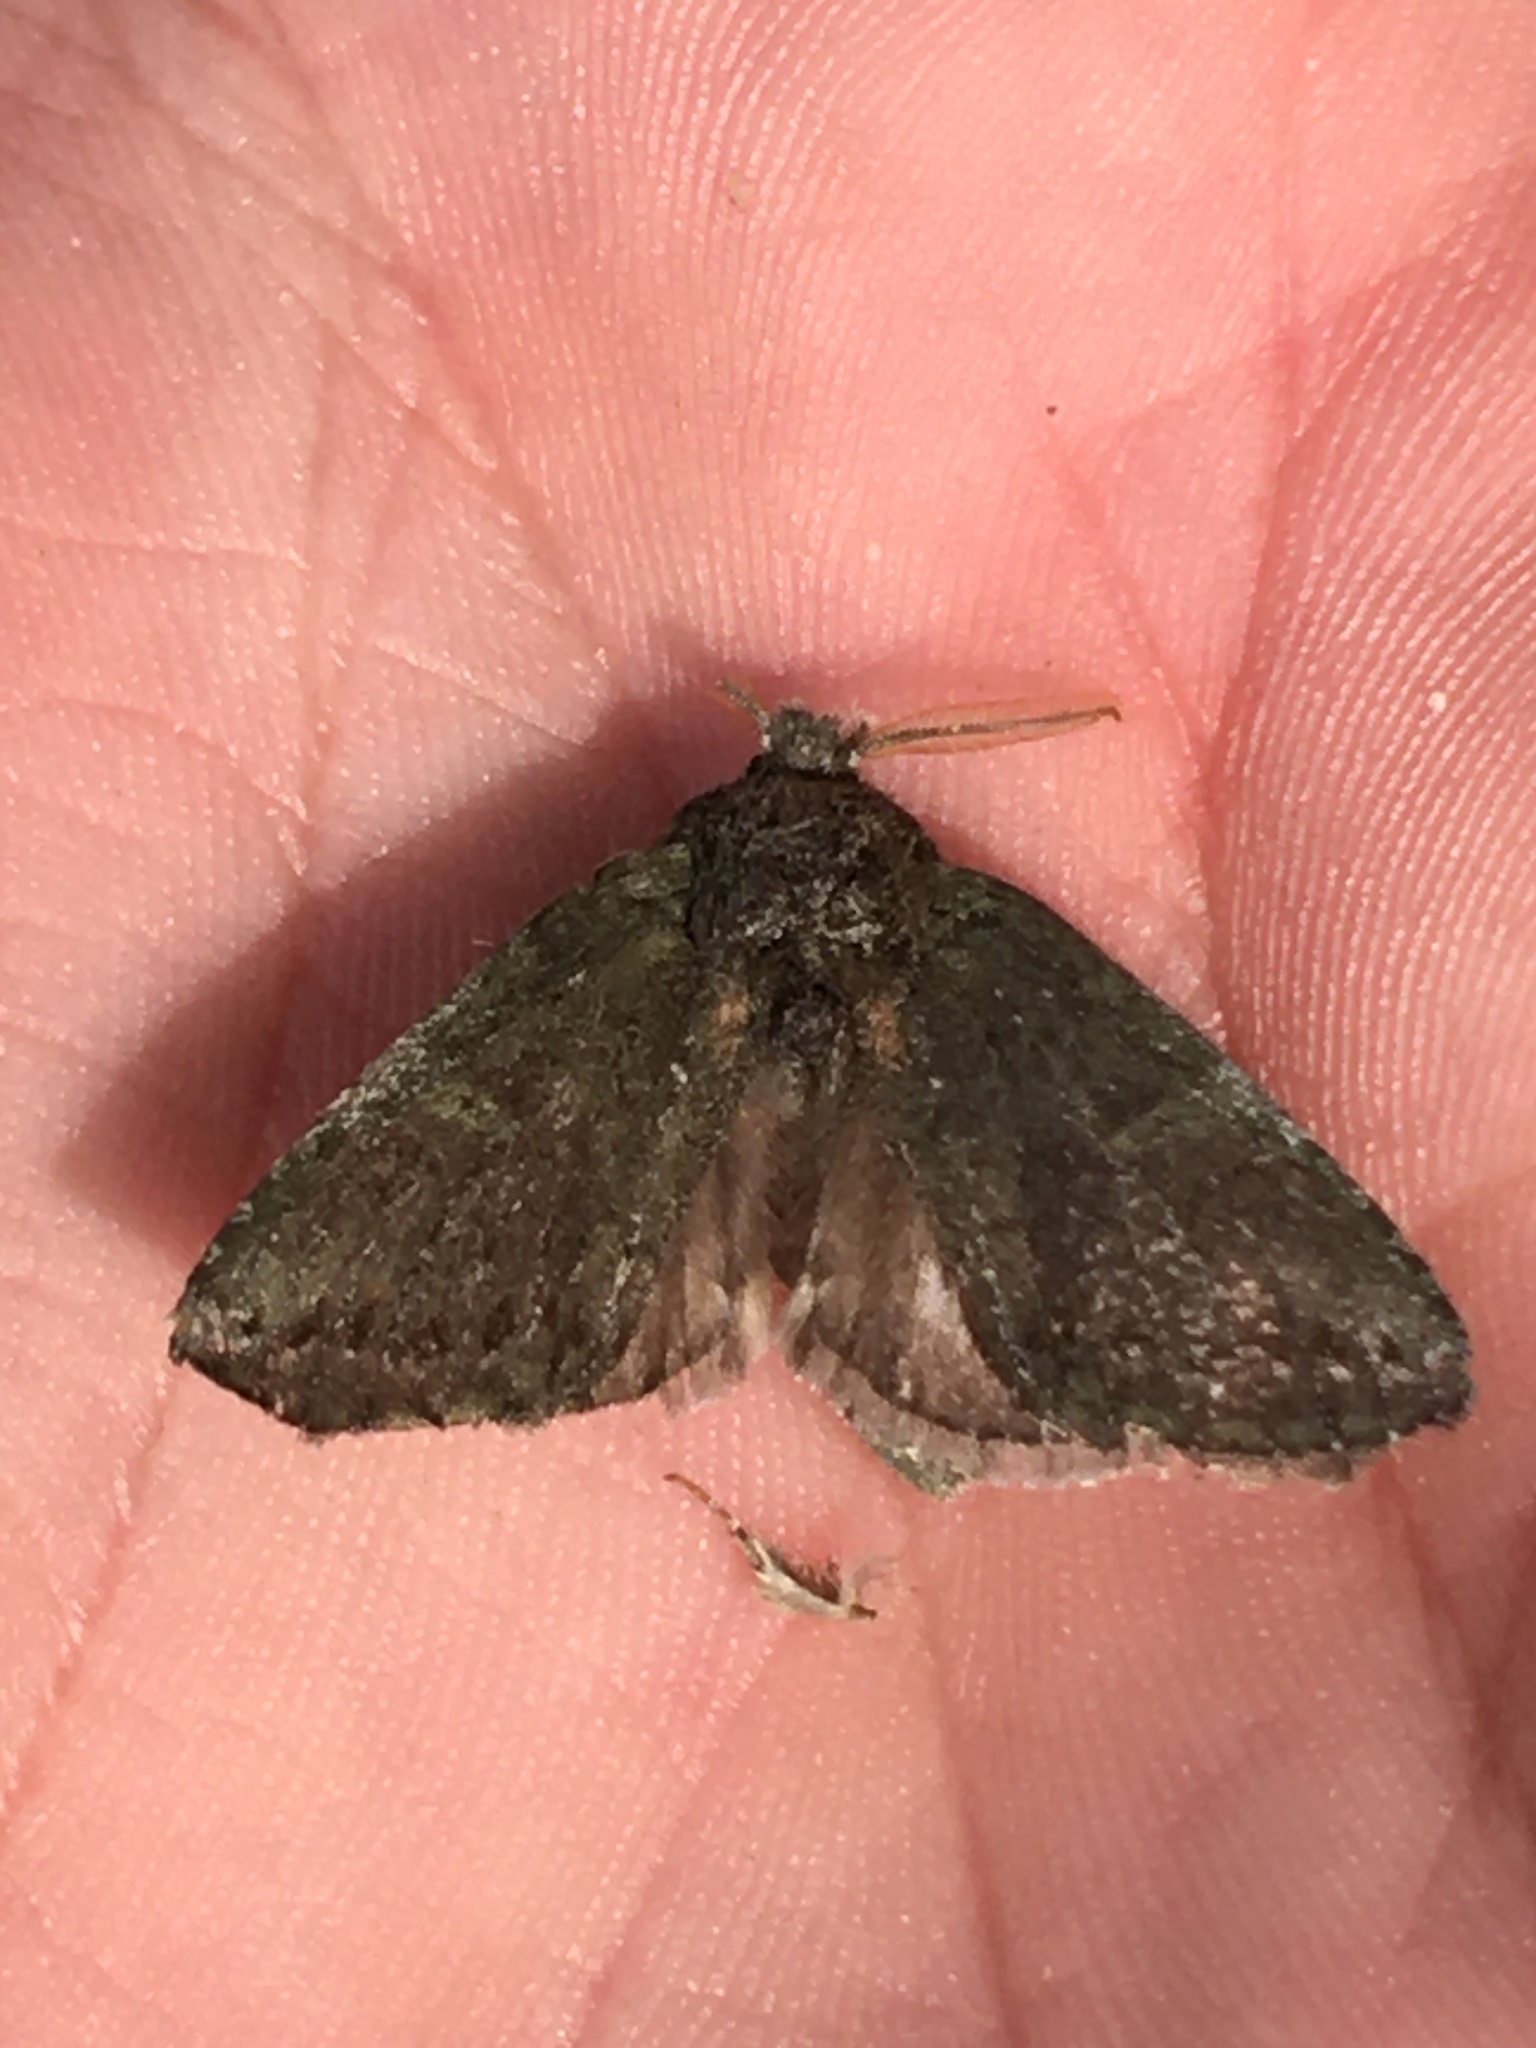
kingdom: Animalia
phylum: Arthropoda
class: Insecta
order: Lepidoptera
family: Notodontidae
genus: Disphragis
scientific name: Disphragis Cecrita guttivitta
